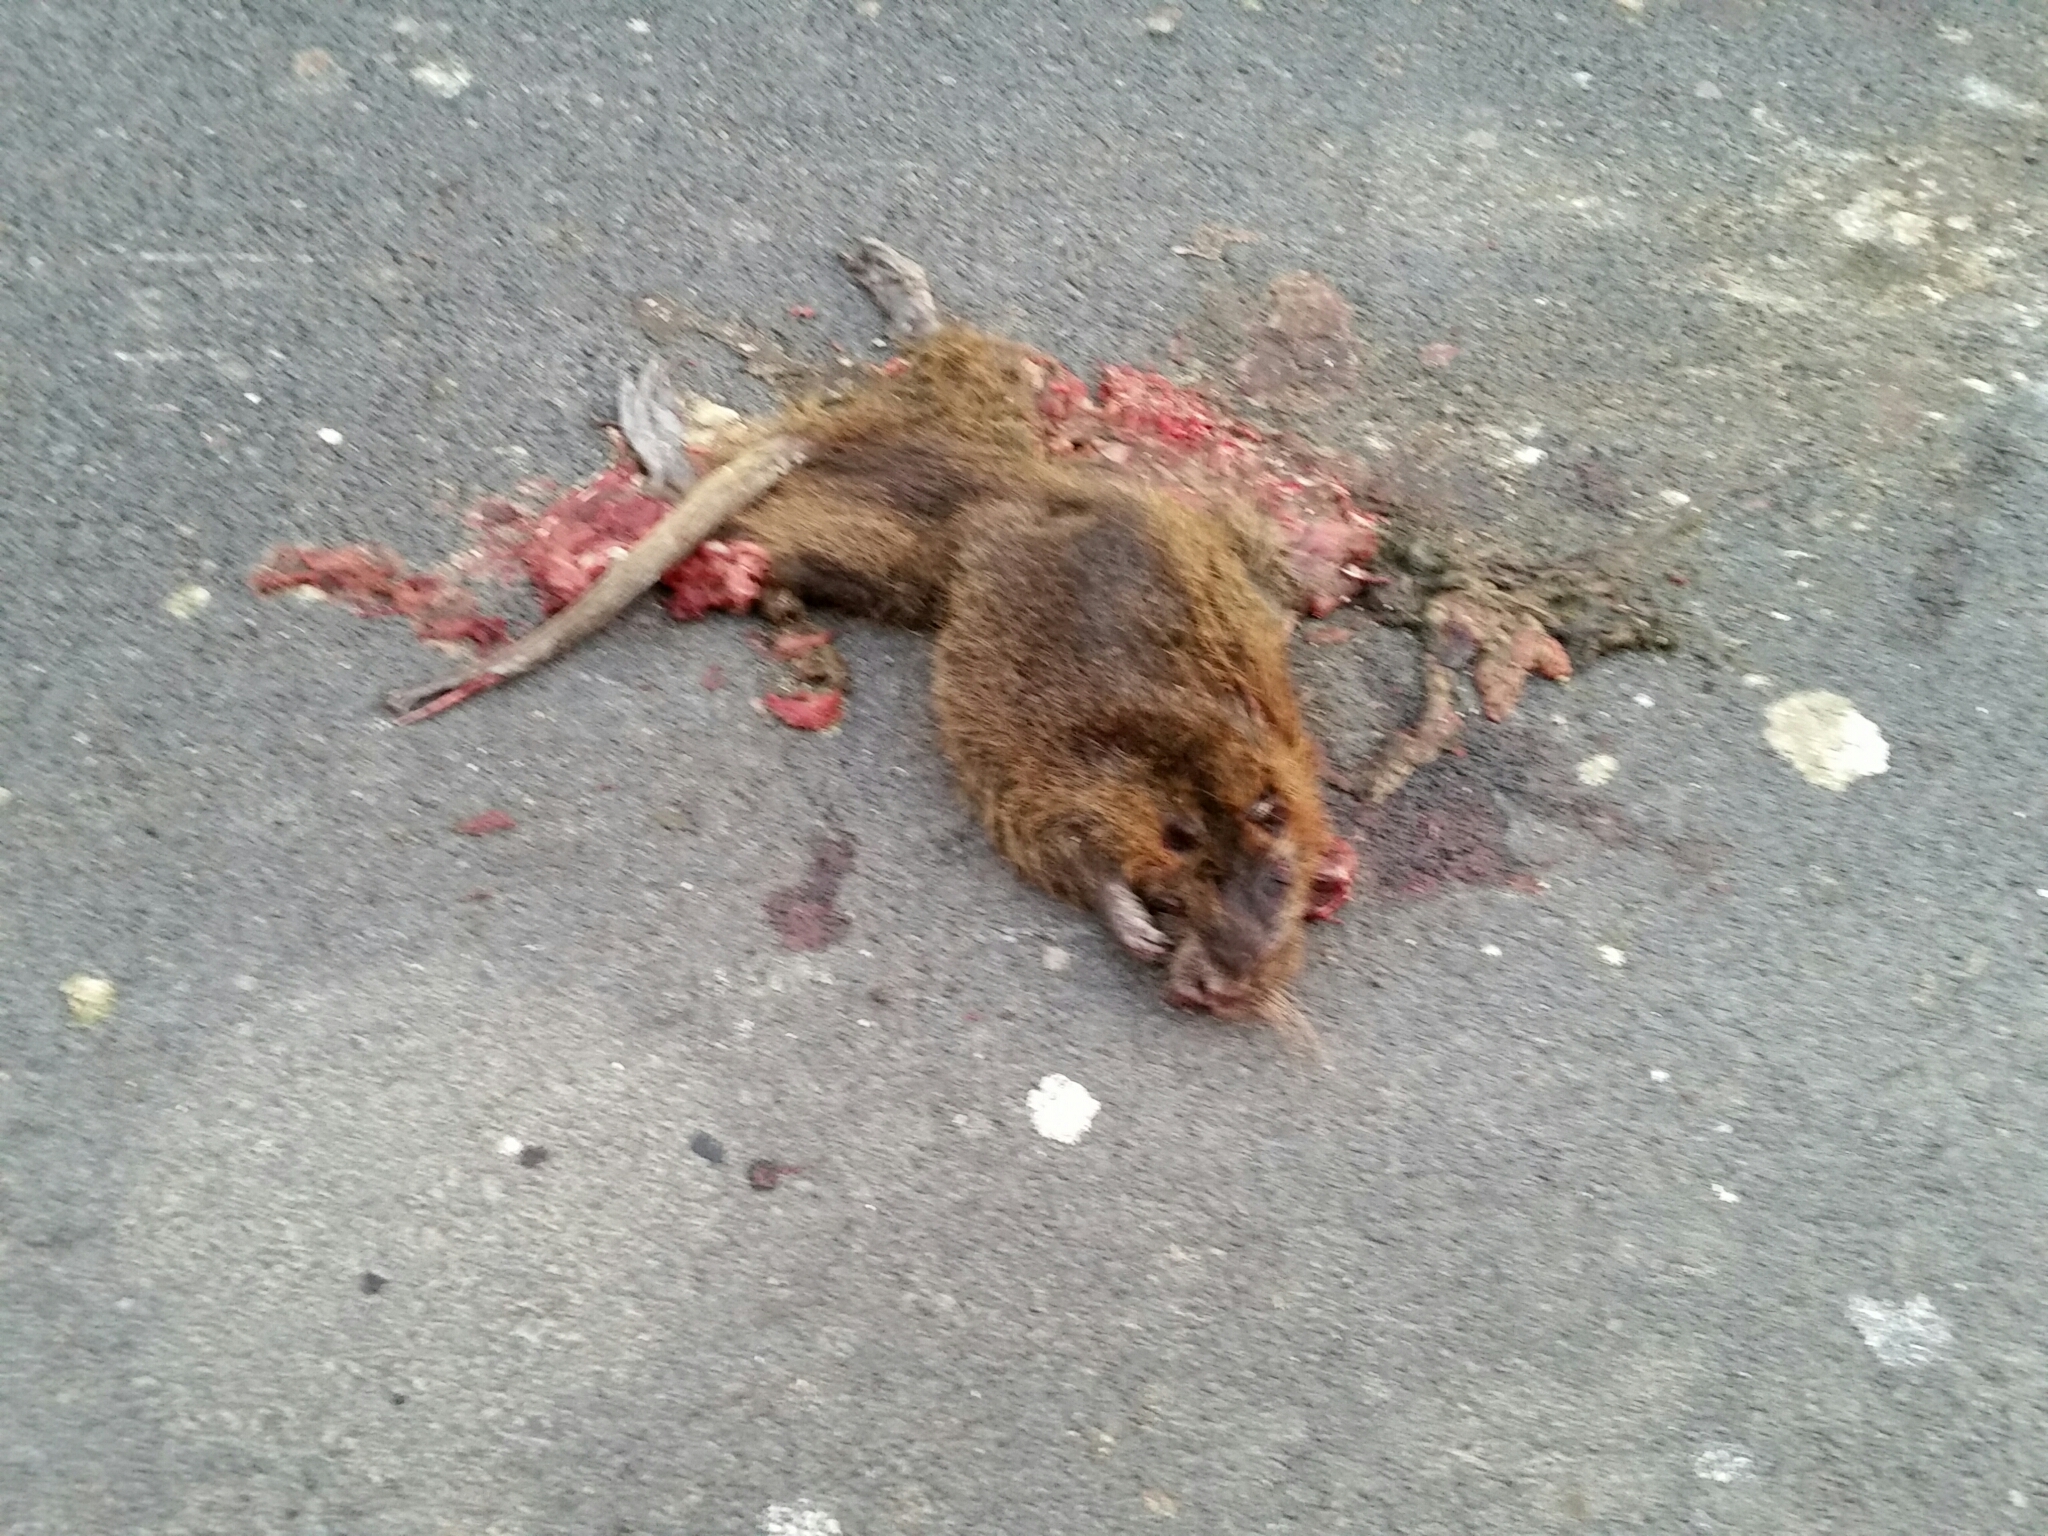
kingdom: Animalia
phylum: Chordata
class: Mammalia
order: Rodentia
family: Myocastoridae
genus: Myocastor
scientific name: Myocastor coypus
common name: Coypu
